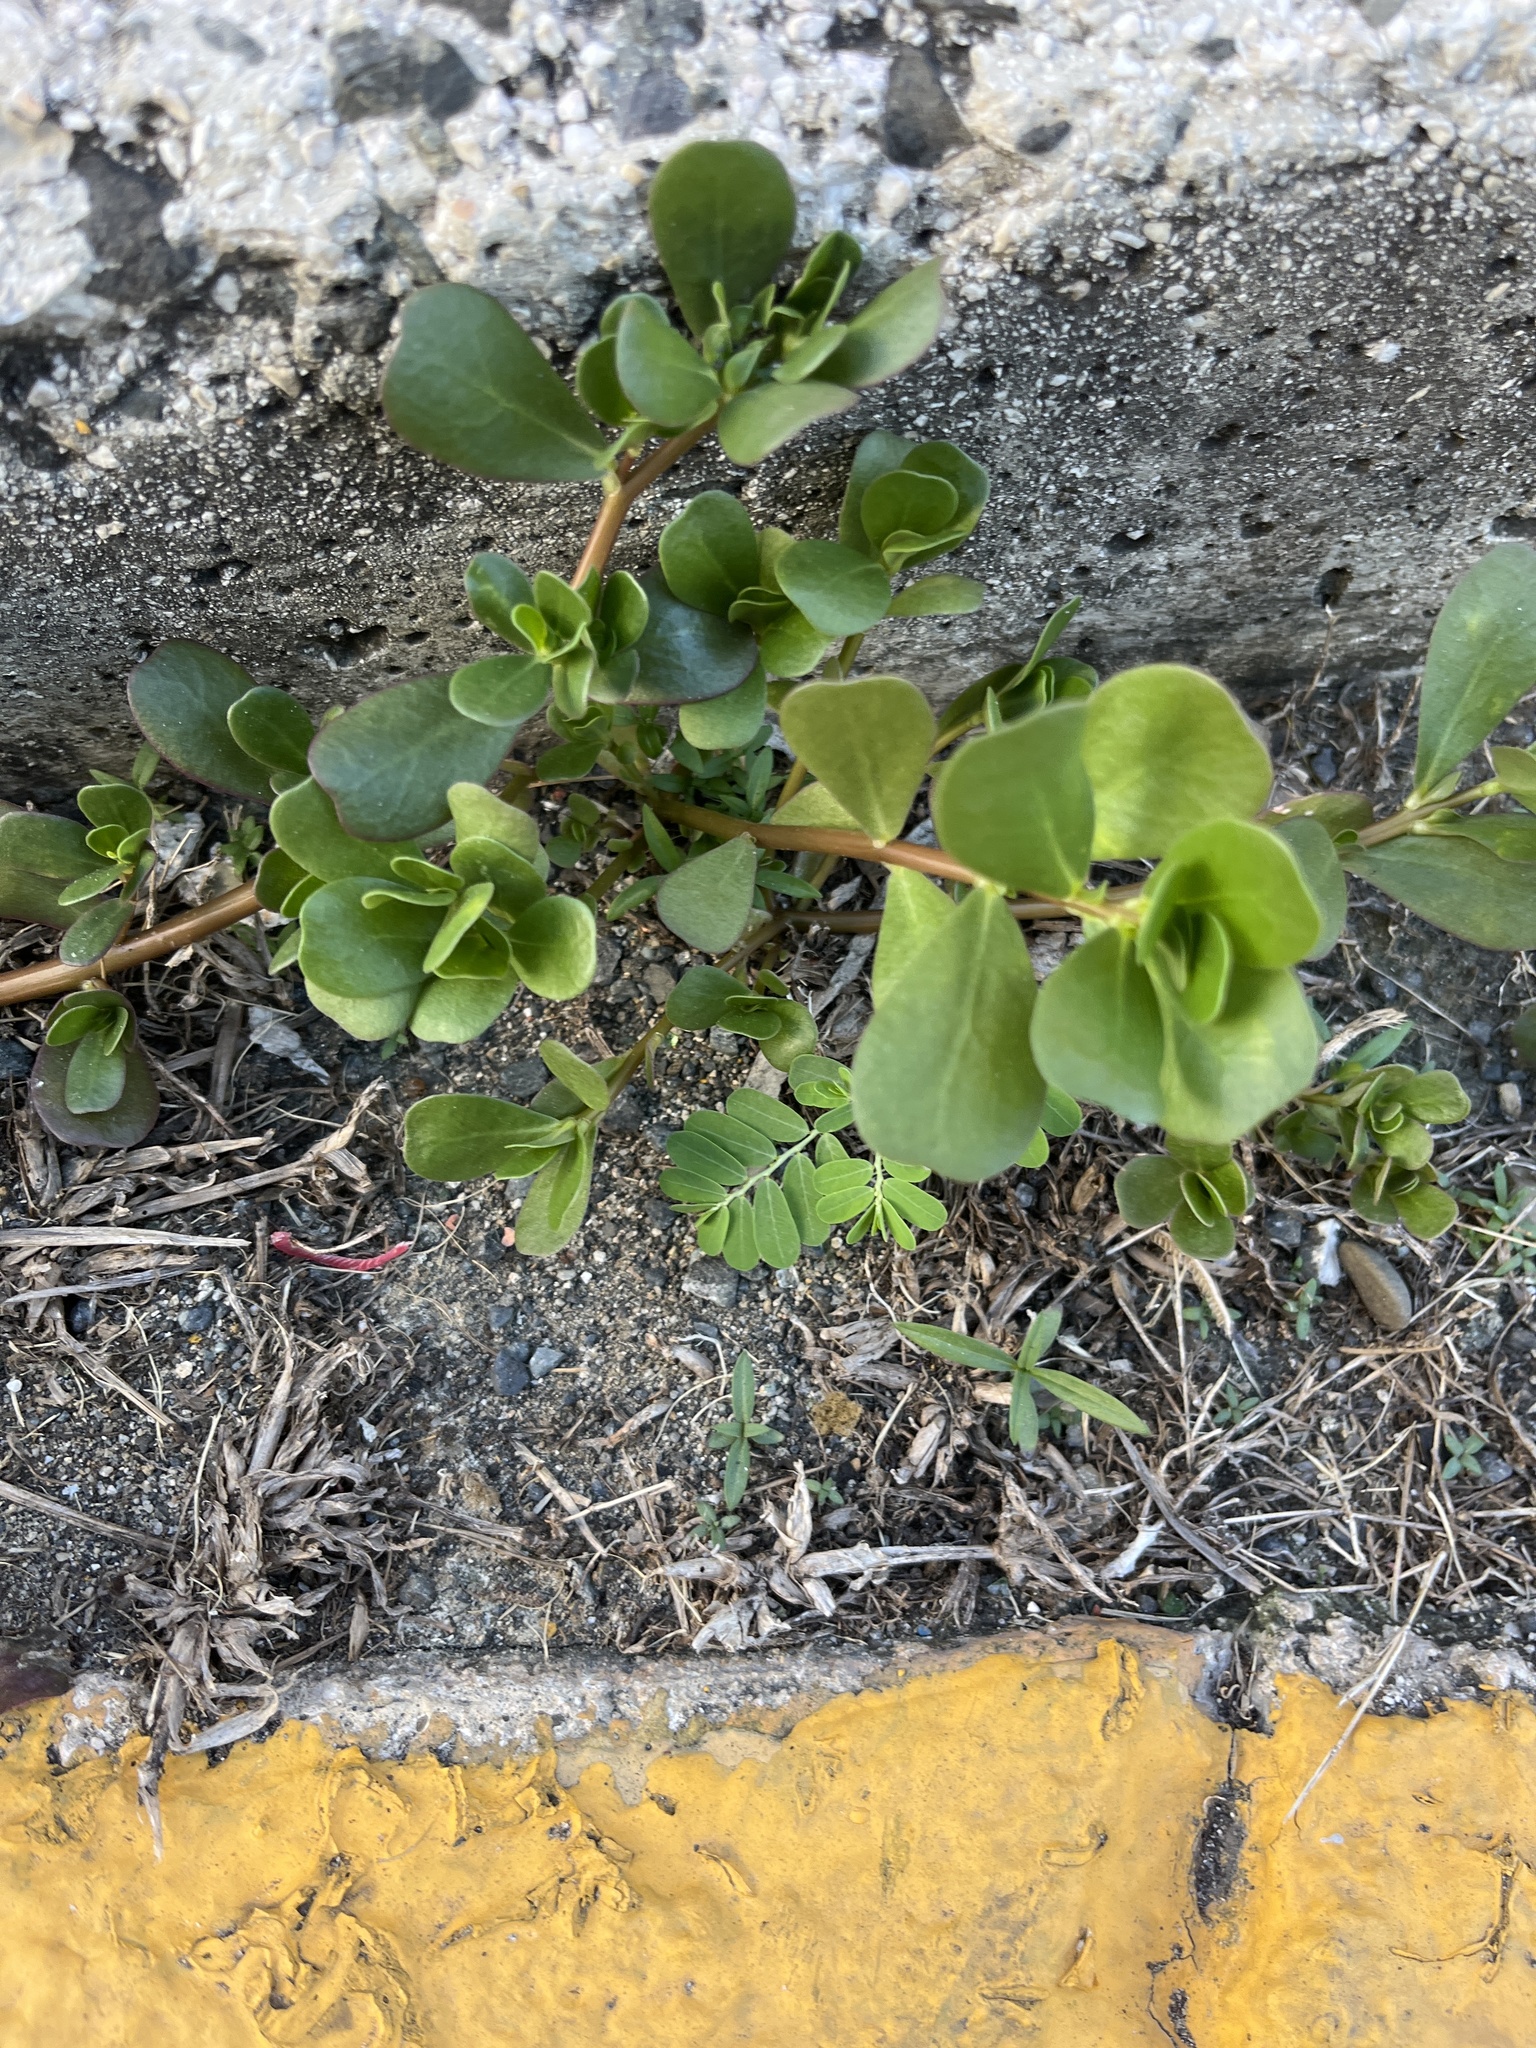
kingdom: Plantae
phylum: Tracheophyta
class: Magnoliopsida
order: Caryophyllales
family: Portulacaceae
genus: Portulaca
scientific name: Portulaca oleracea
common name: Common purslane
